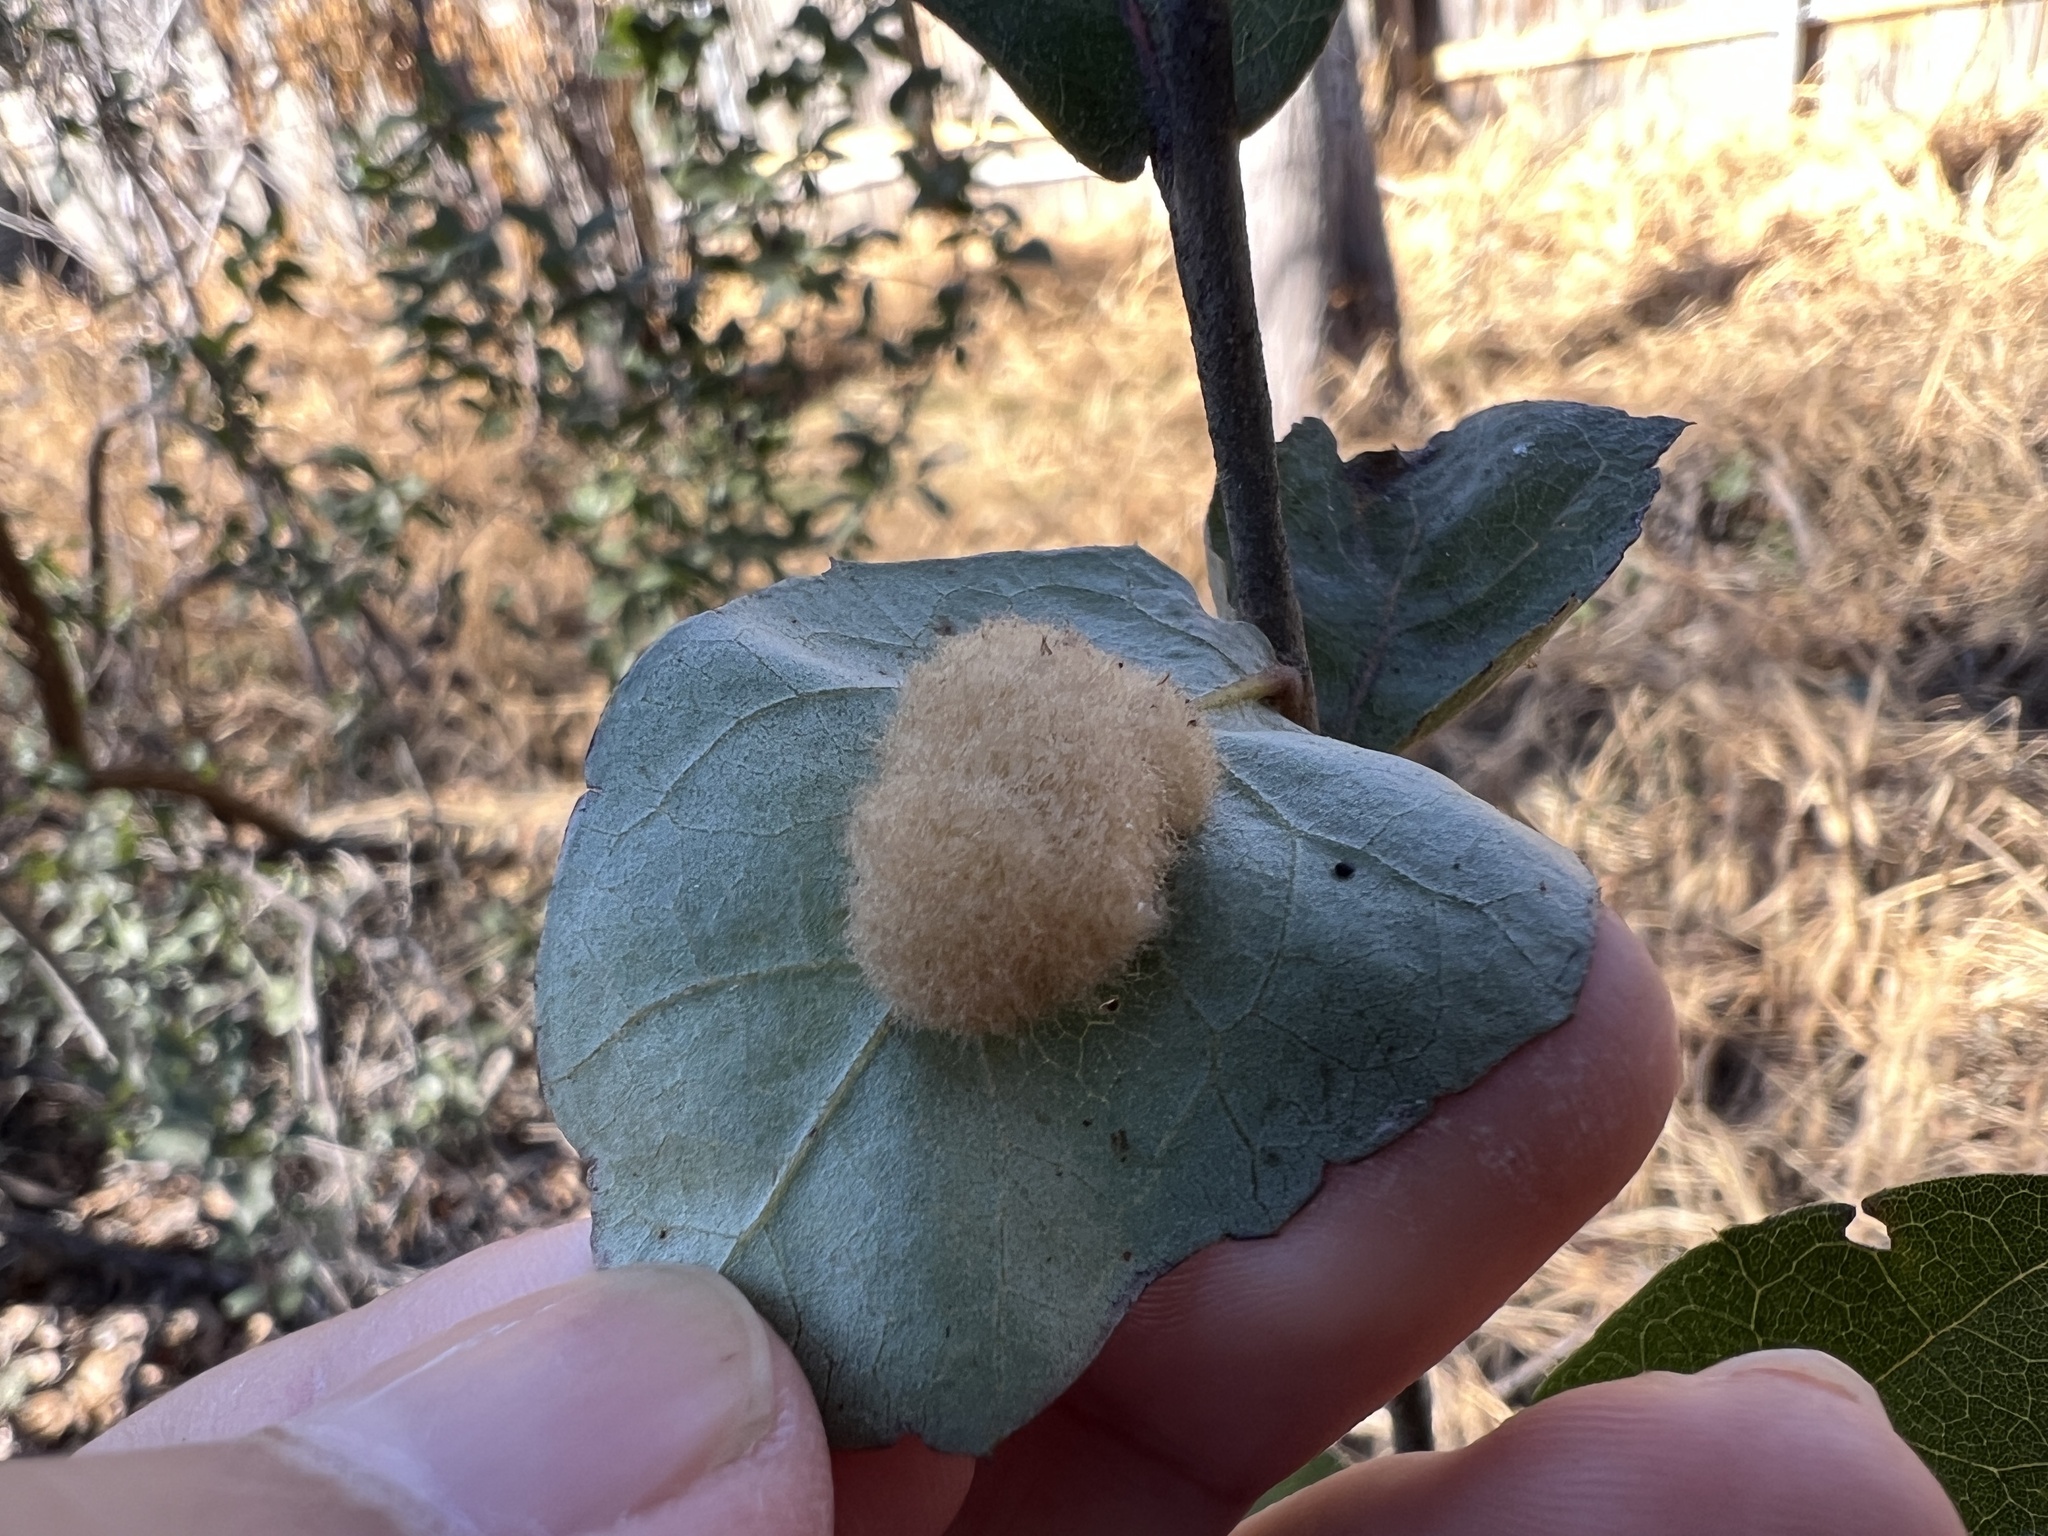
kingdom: Animalia
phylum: Arthropoda
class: Insecta
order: Hymenoptera
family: Cynipidae
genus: Andricus
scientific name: Andricus Druon quercuslanigerum
